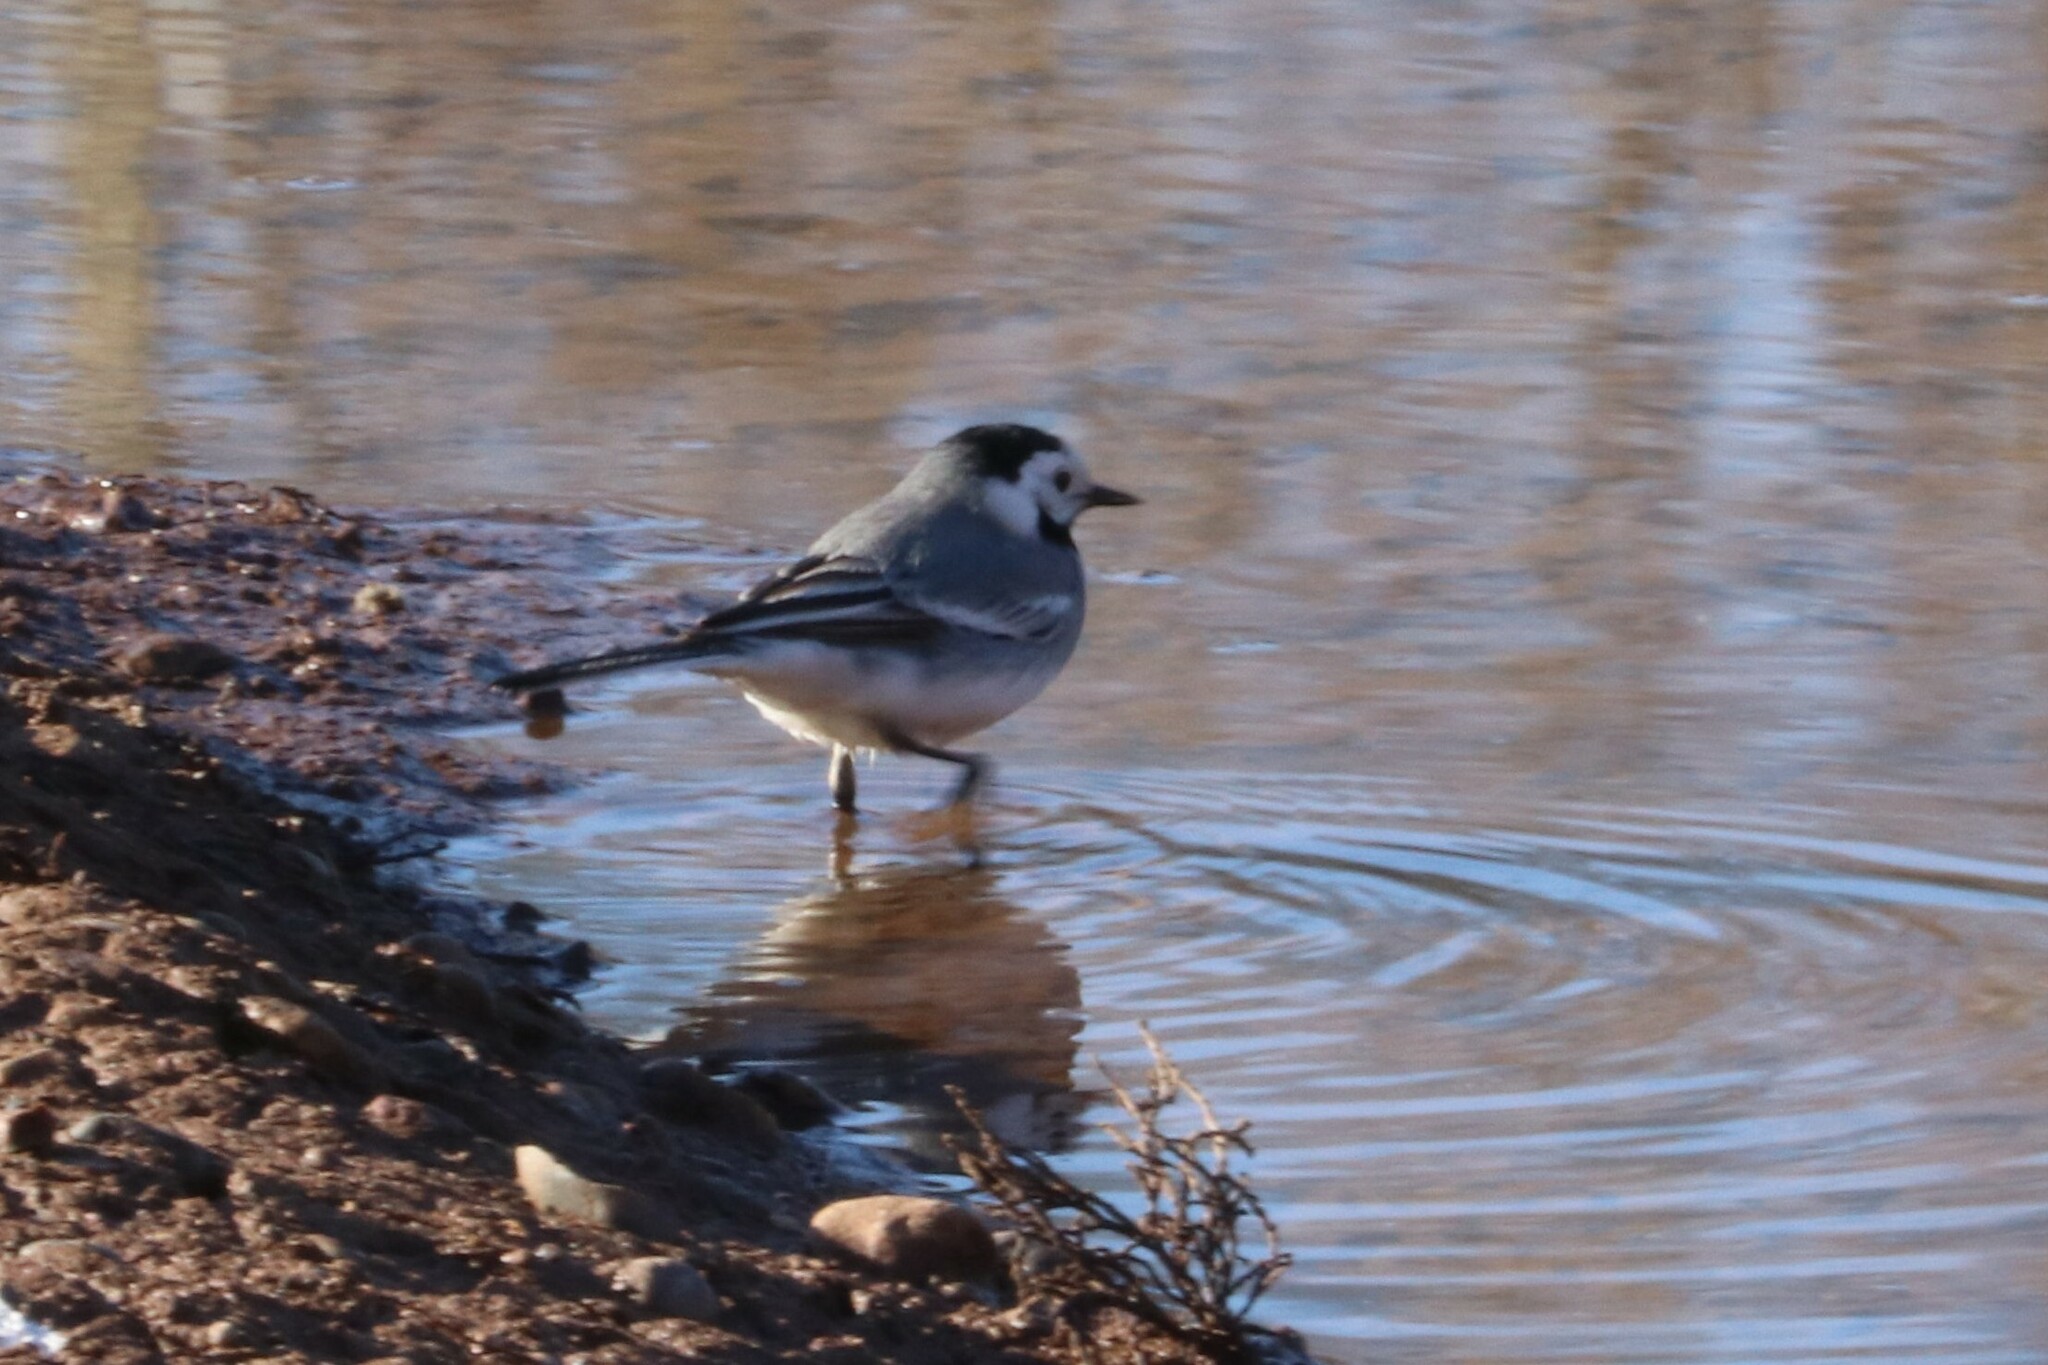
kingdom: Animalia
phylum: Chordata
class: Aves
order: Passeriformes
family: Motacillidae
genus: Motacilla
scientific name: Motacilla alba
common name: White wagtail
